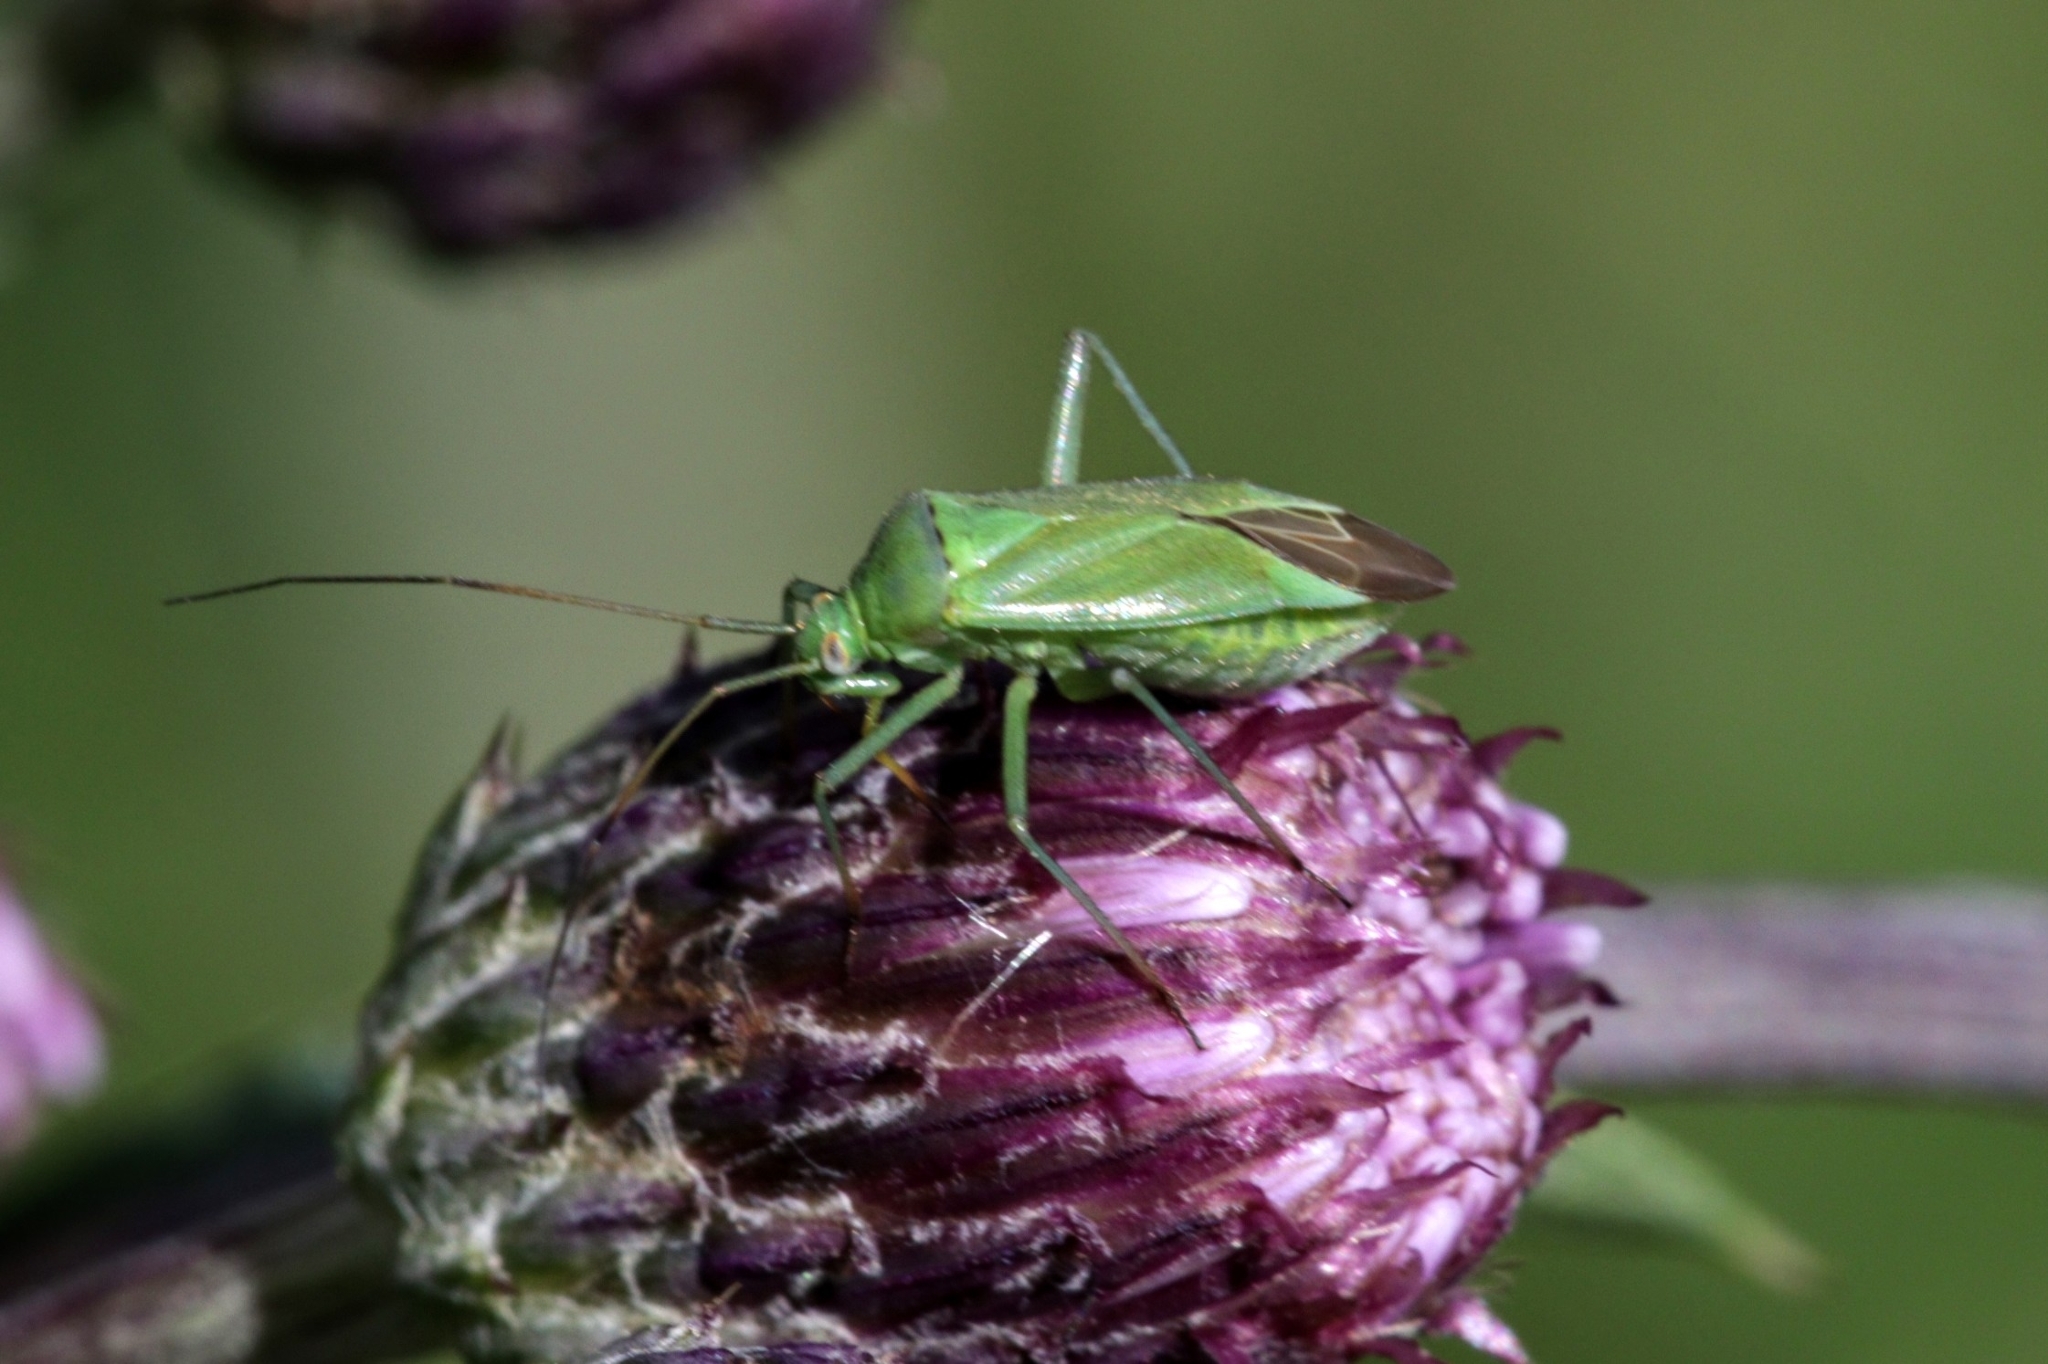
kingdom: Animalia
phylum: Arthropoda
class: Insecta
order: Hemiptera
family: Miridae
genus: Calocoris
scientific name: Calocoris affinis
